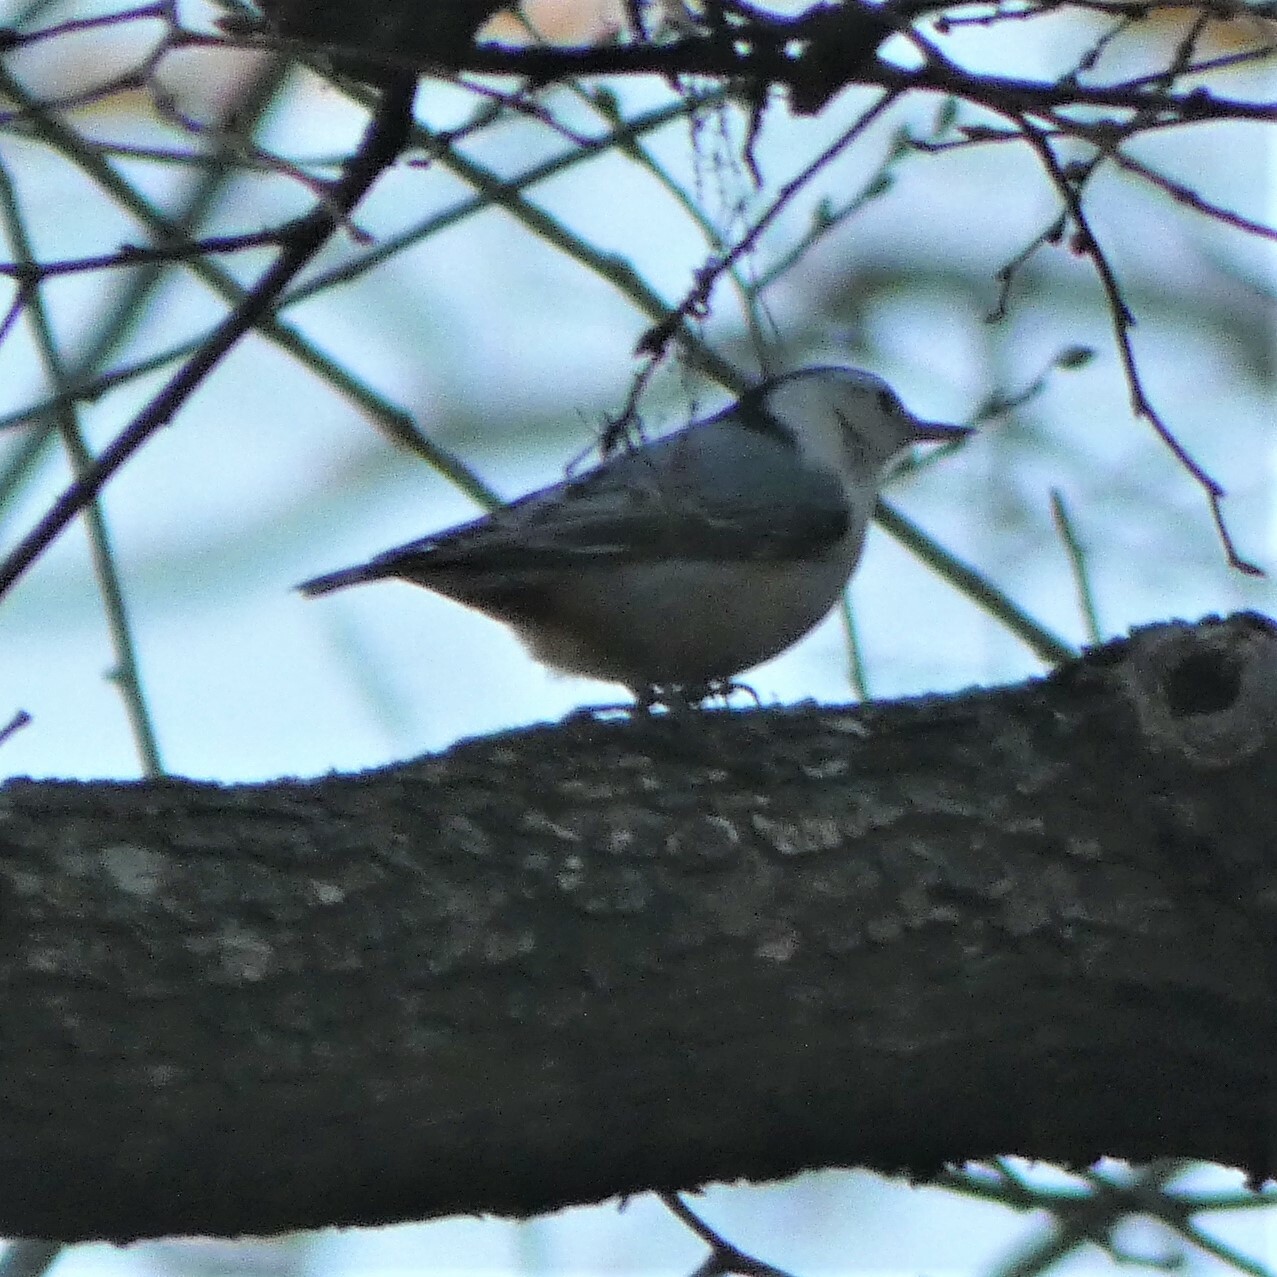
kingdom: Animalia
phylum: Chordata
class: Aves
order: Passeriformes
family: Sittidae
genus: Sitta
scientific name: Sitta carolinensis
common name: White-breasted nuthatch
